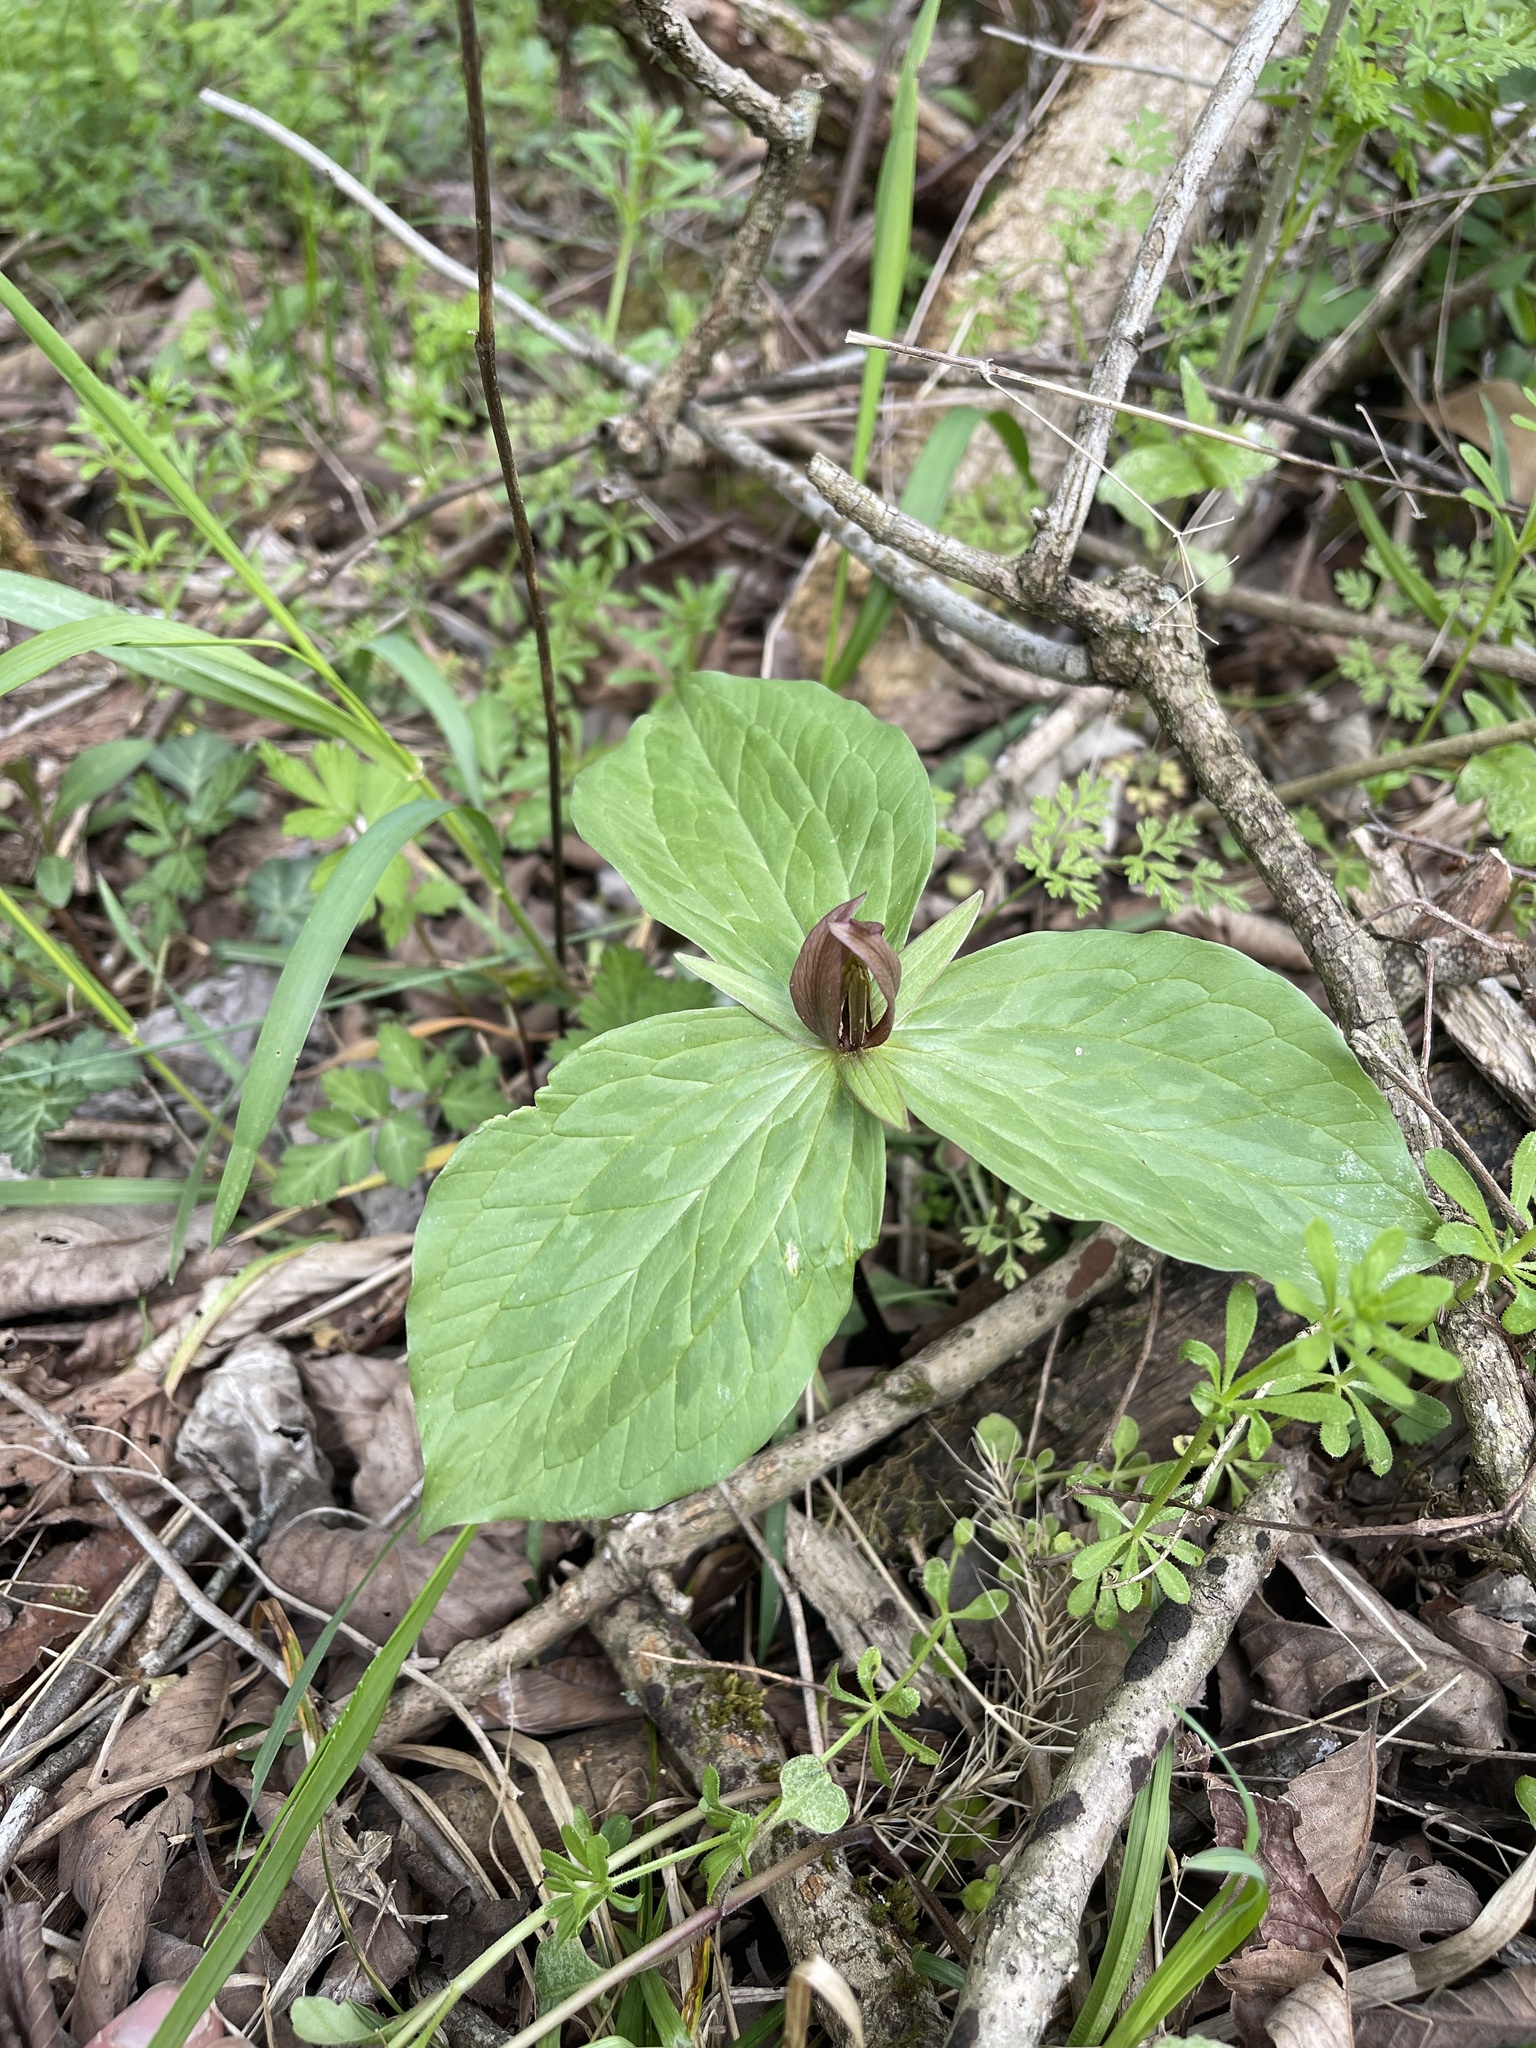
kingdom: Plantae
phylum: Tracheophyta
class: Liliopsida
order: Liliales
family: Melanthiaceae
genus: Trillium
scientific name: Trillium sessile
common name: Sessile trillium
